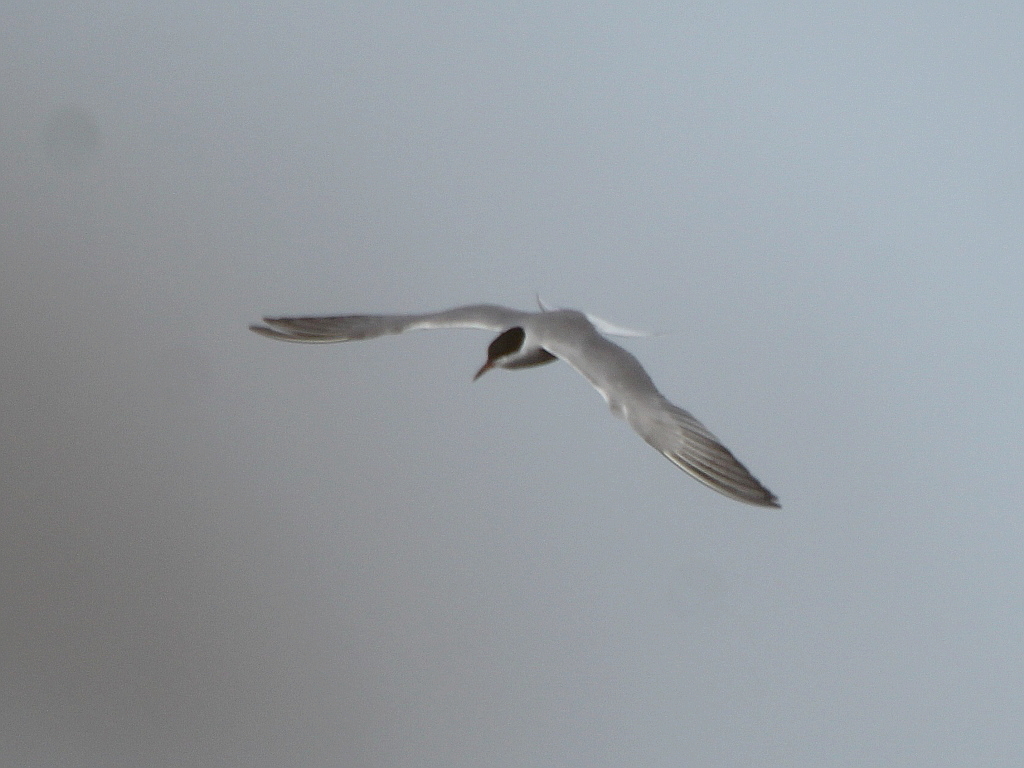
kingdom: Animalia
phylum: Chordata
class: Aves
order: Charadriiformes
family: Laridae
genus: Sterna
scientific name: Sterna hirundo
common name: Common tern
